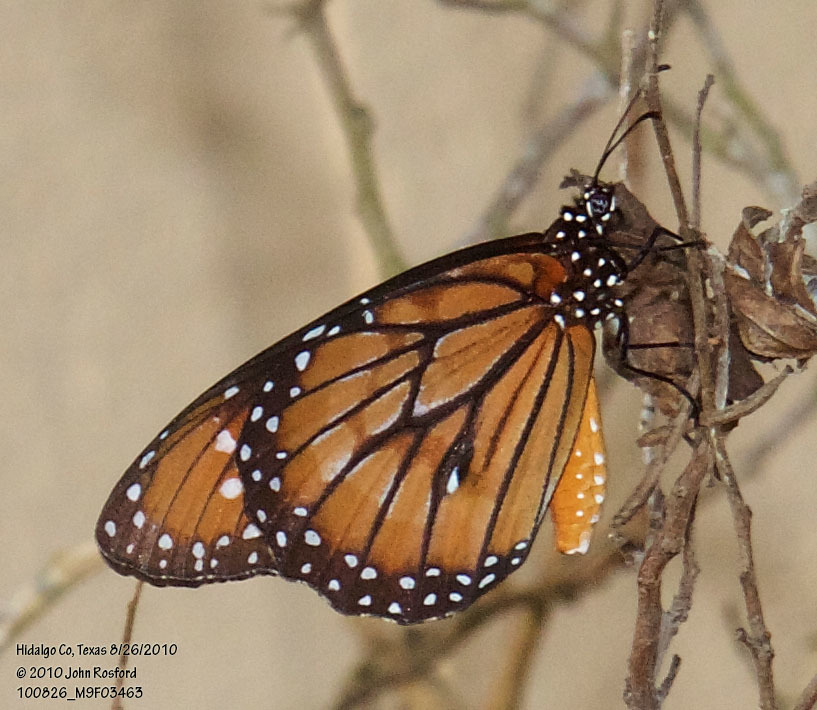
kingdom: Animalia
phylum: Arthropoda
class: Insecta
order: Lepidoptera
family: Nymphalidae
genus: Danaus
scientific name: Danaus eresimus
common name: Soldier
